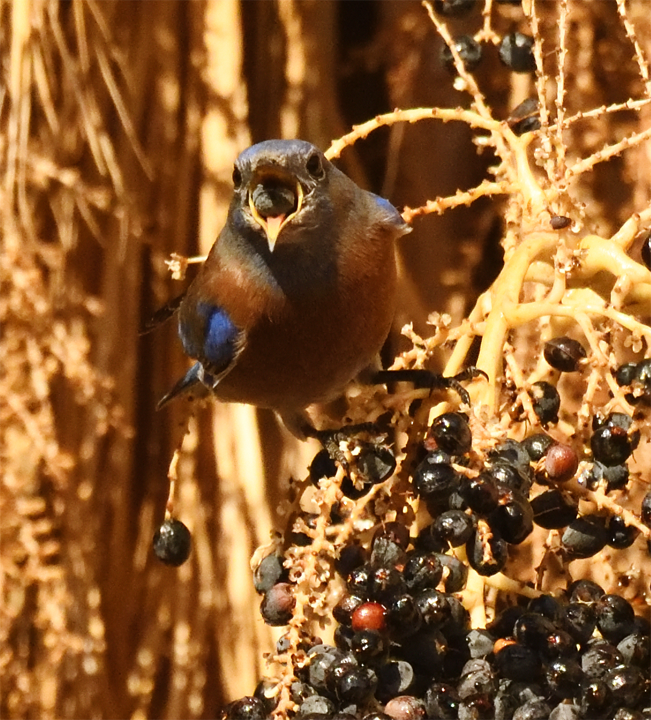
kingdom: Animalia
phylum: Chordata
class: Aves
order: Passeriformes
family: Turdidae
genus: Sialia
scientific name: Sialia mexicana
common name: Western bluebird
